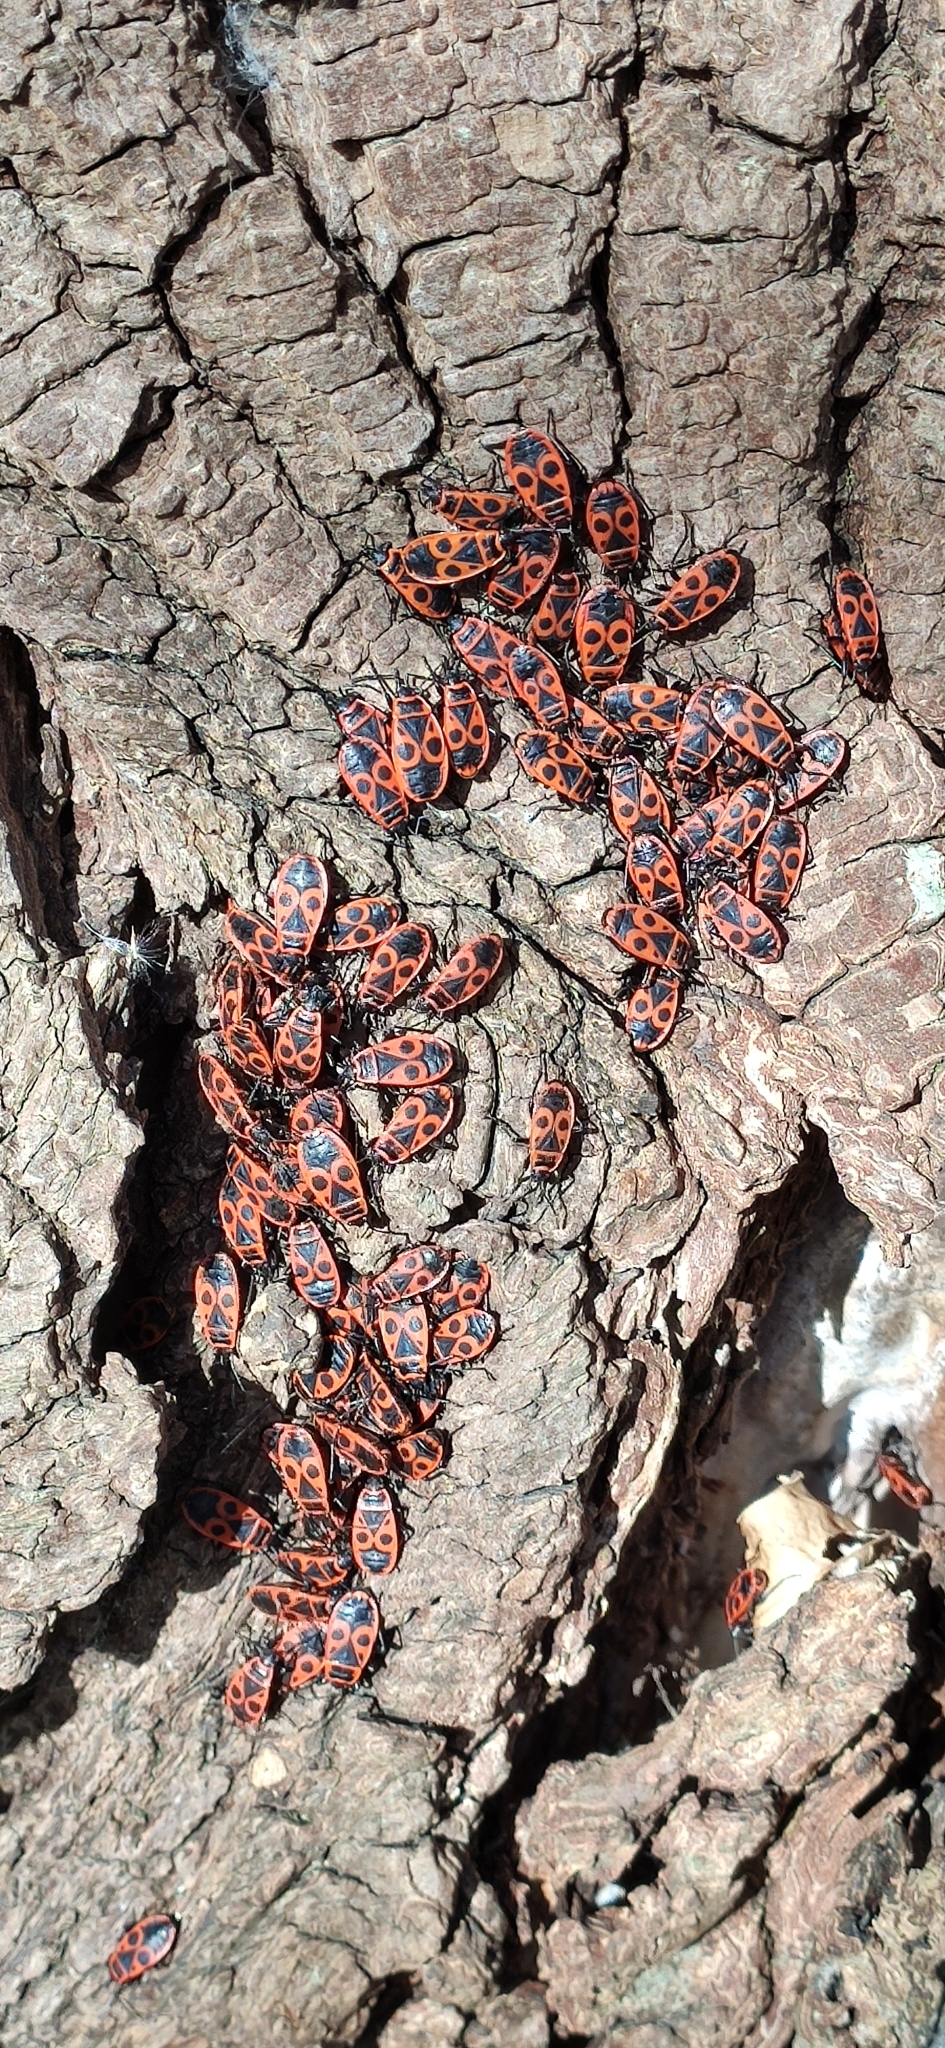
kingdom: Animalia
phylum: Arthropoda
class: Insecta
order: Hemiptera
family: Pyrrhocoridae
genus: Pyrrhocoris
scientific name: Pyrrhocoris apterus
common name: Firebug
